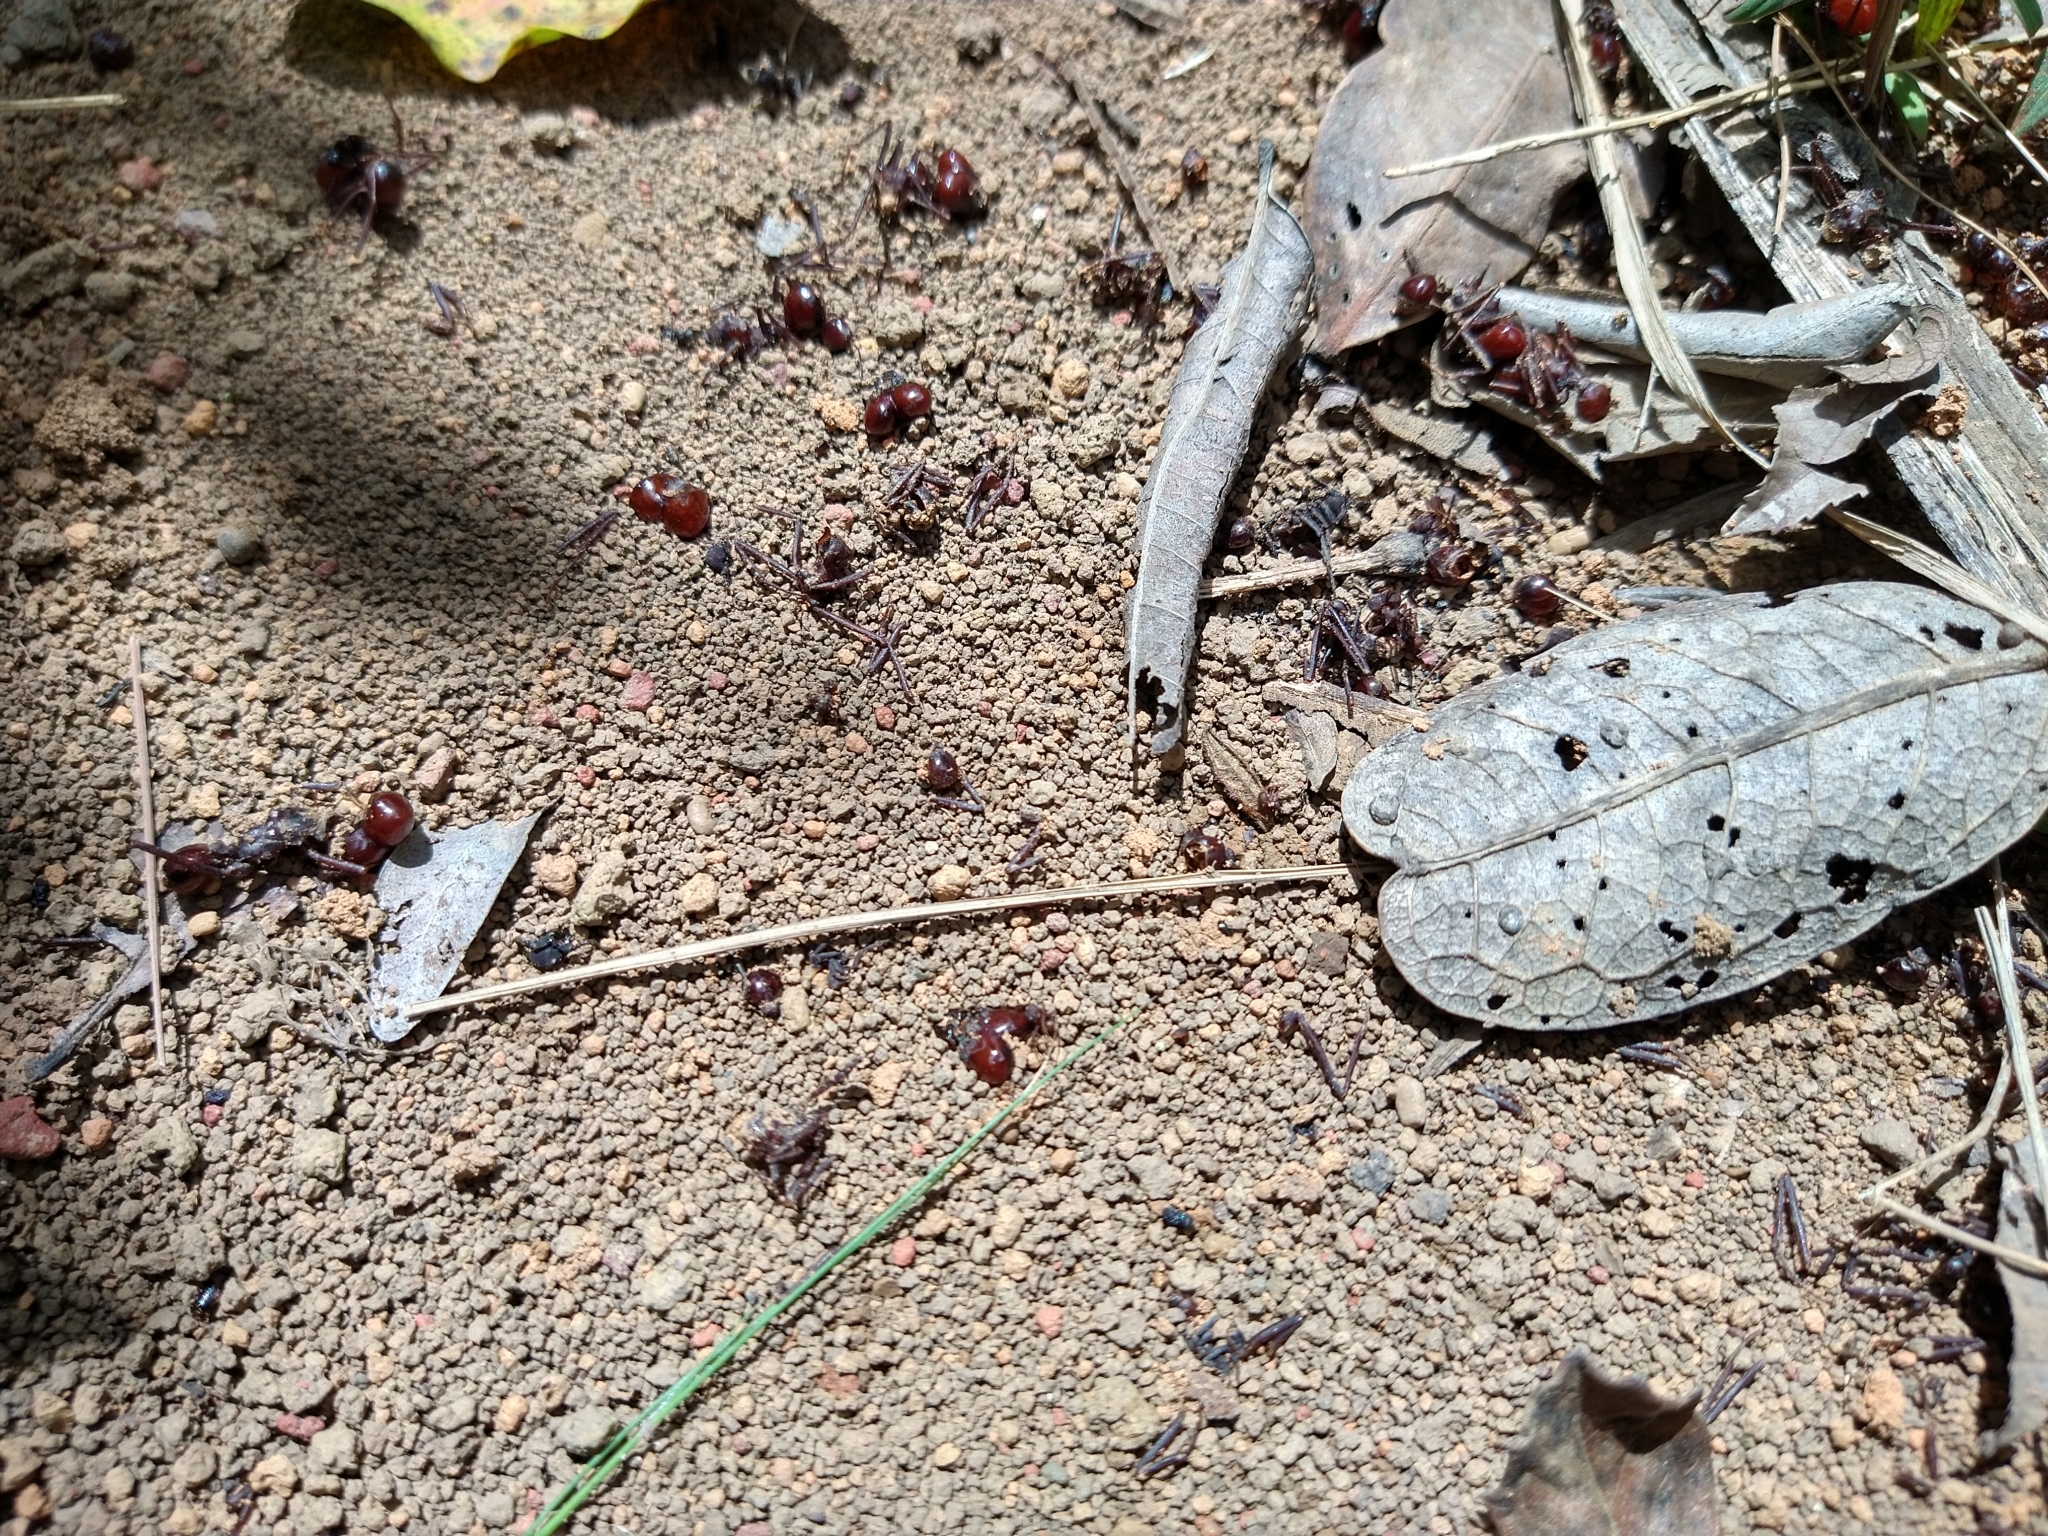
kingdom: Animalia
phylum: Arthropoda
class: Insecta
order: Hymenoptera
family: Formicidae
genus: Nomamyrmex
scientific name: Nomamyrmex esenbeckii
